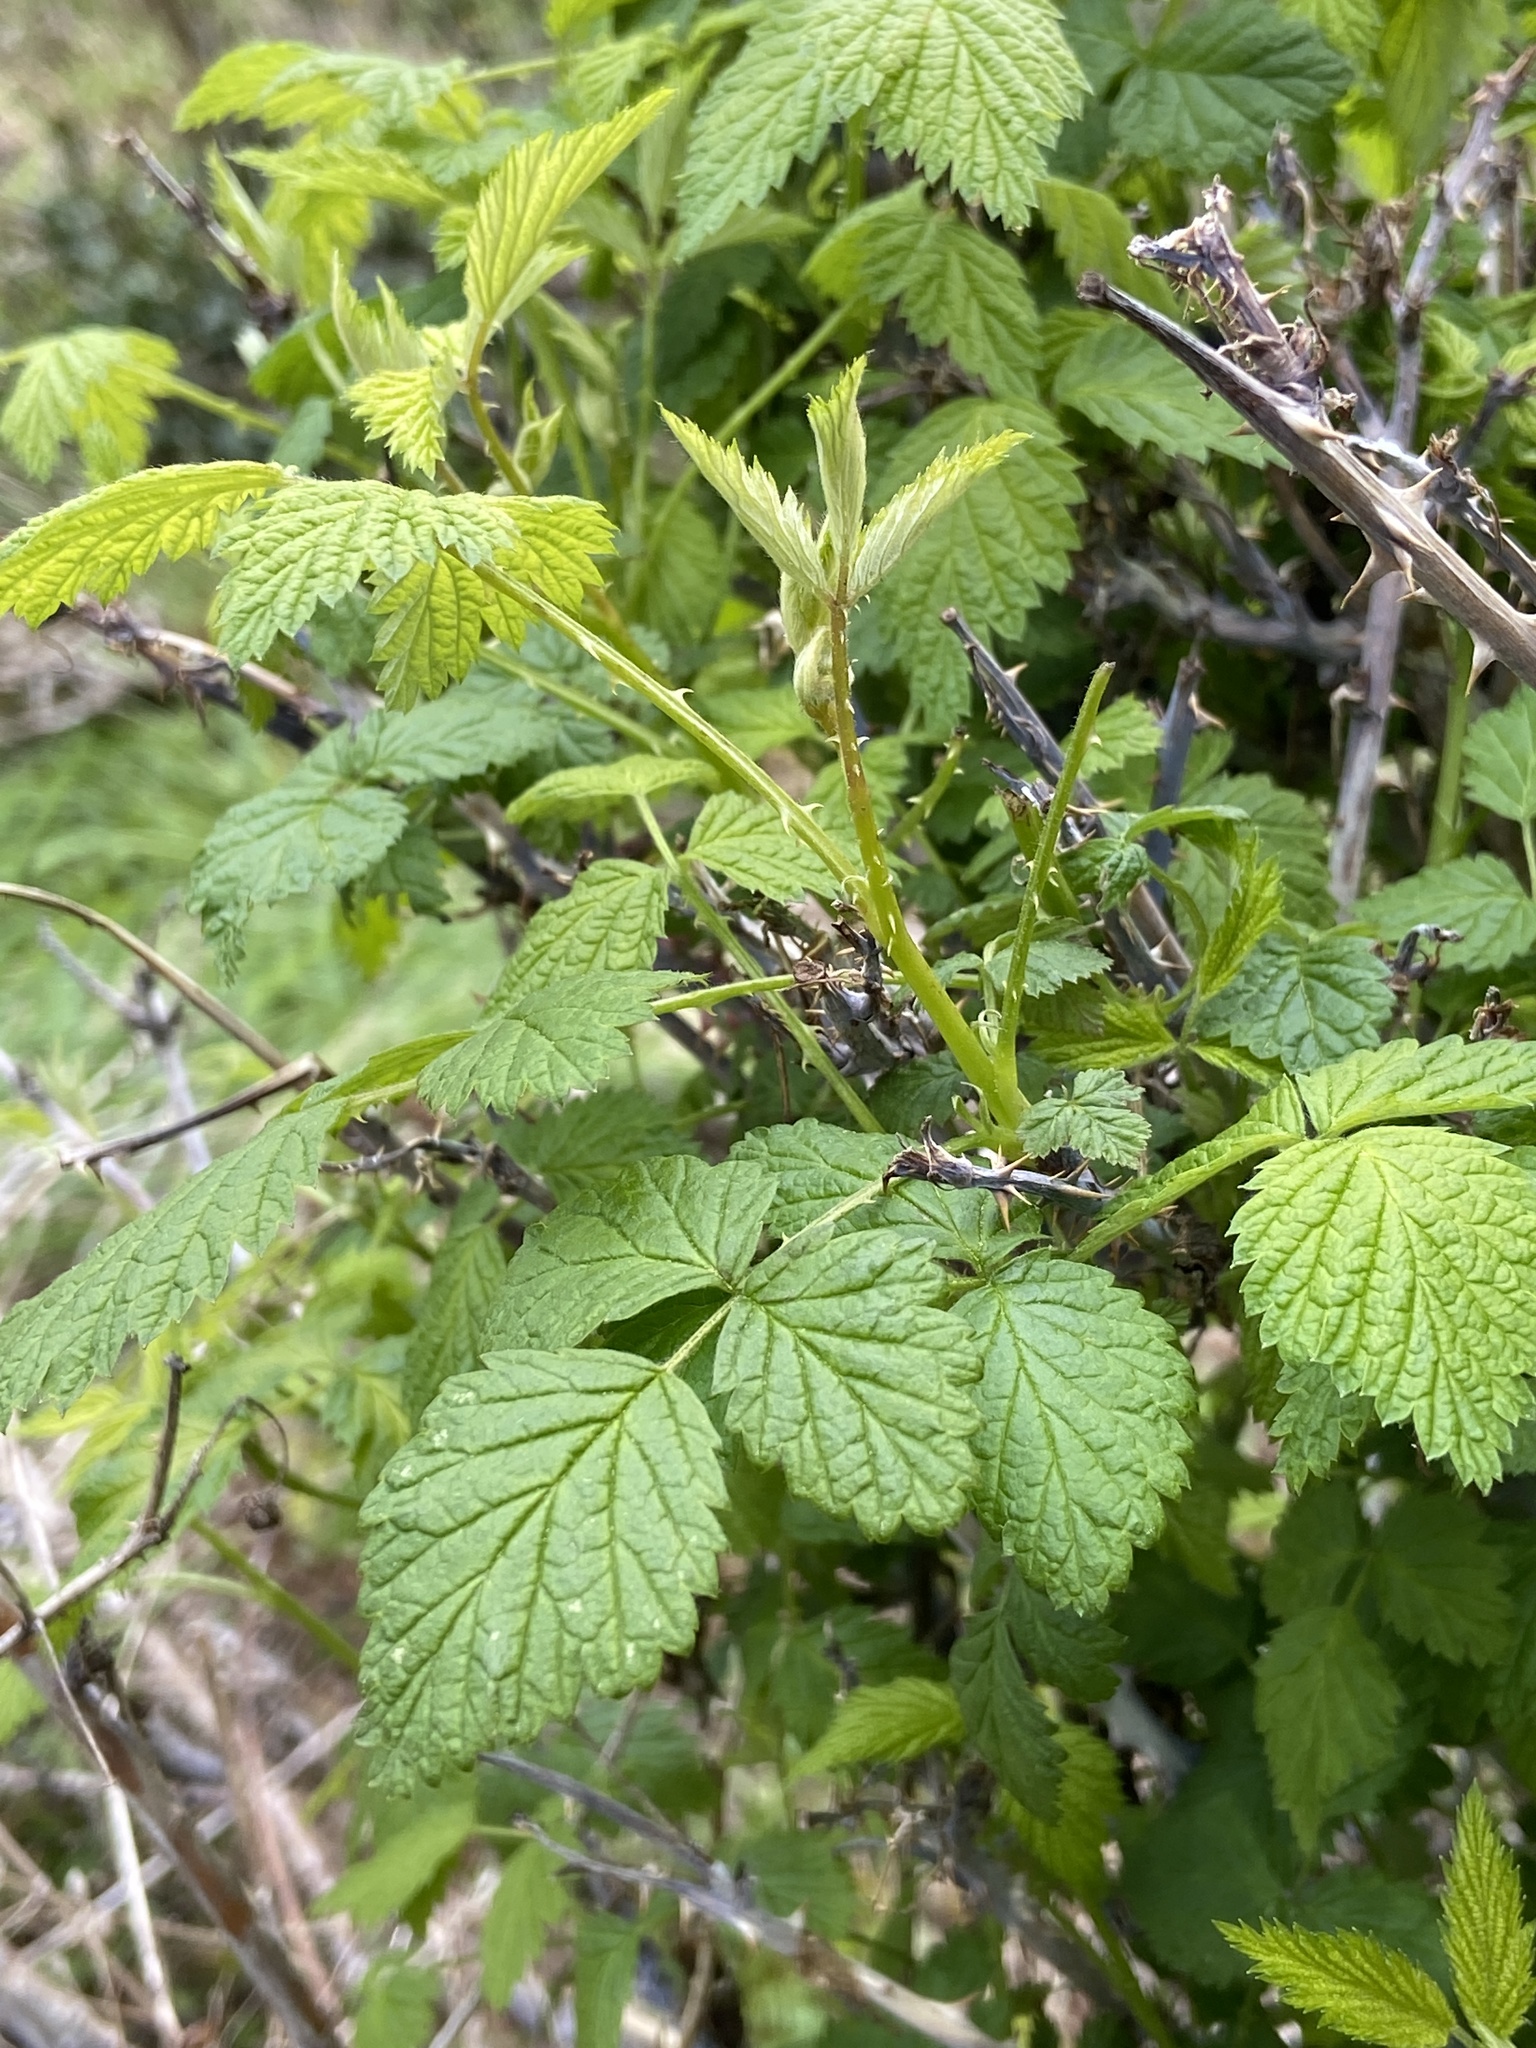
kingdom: Plantae
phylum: Tracheophyta
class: Magnoliopsida
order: Rosales
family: Rosaceae
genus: Rubus
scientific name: Rubus leucodermis
